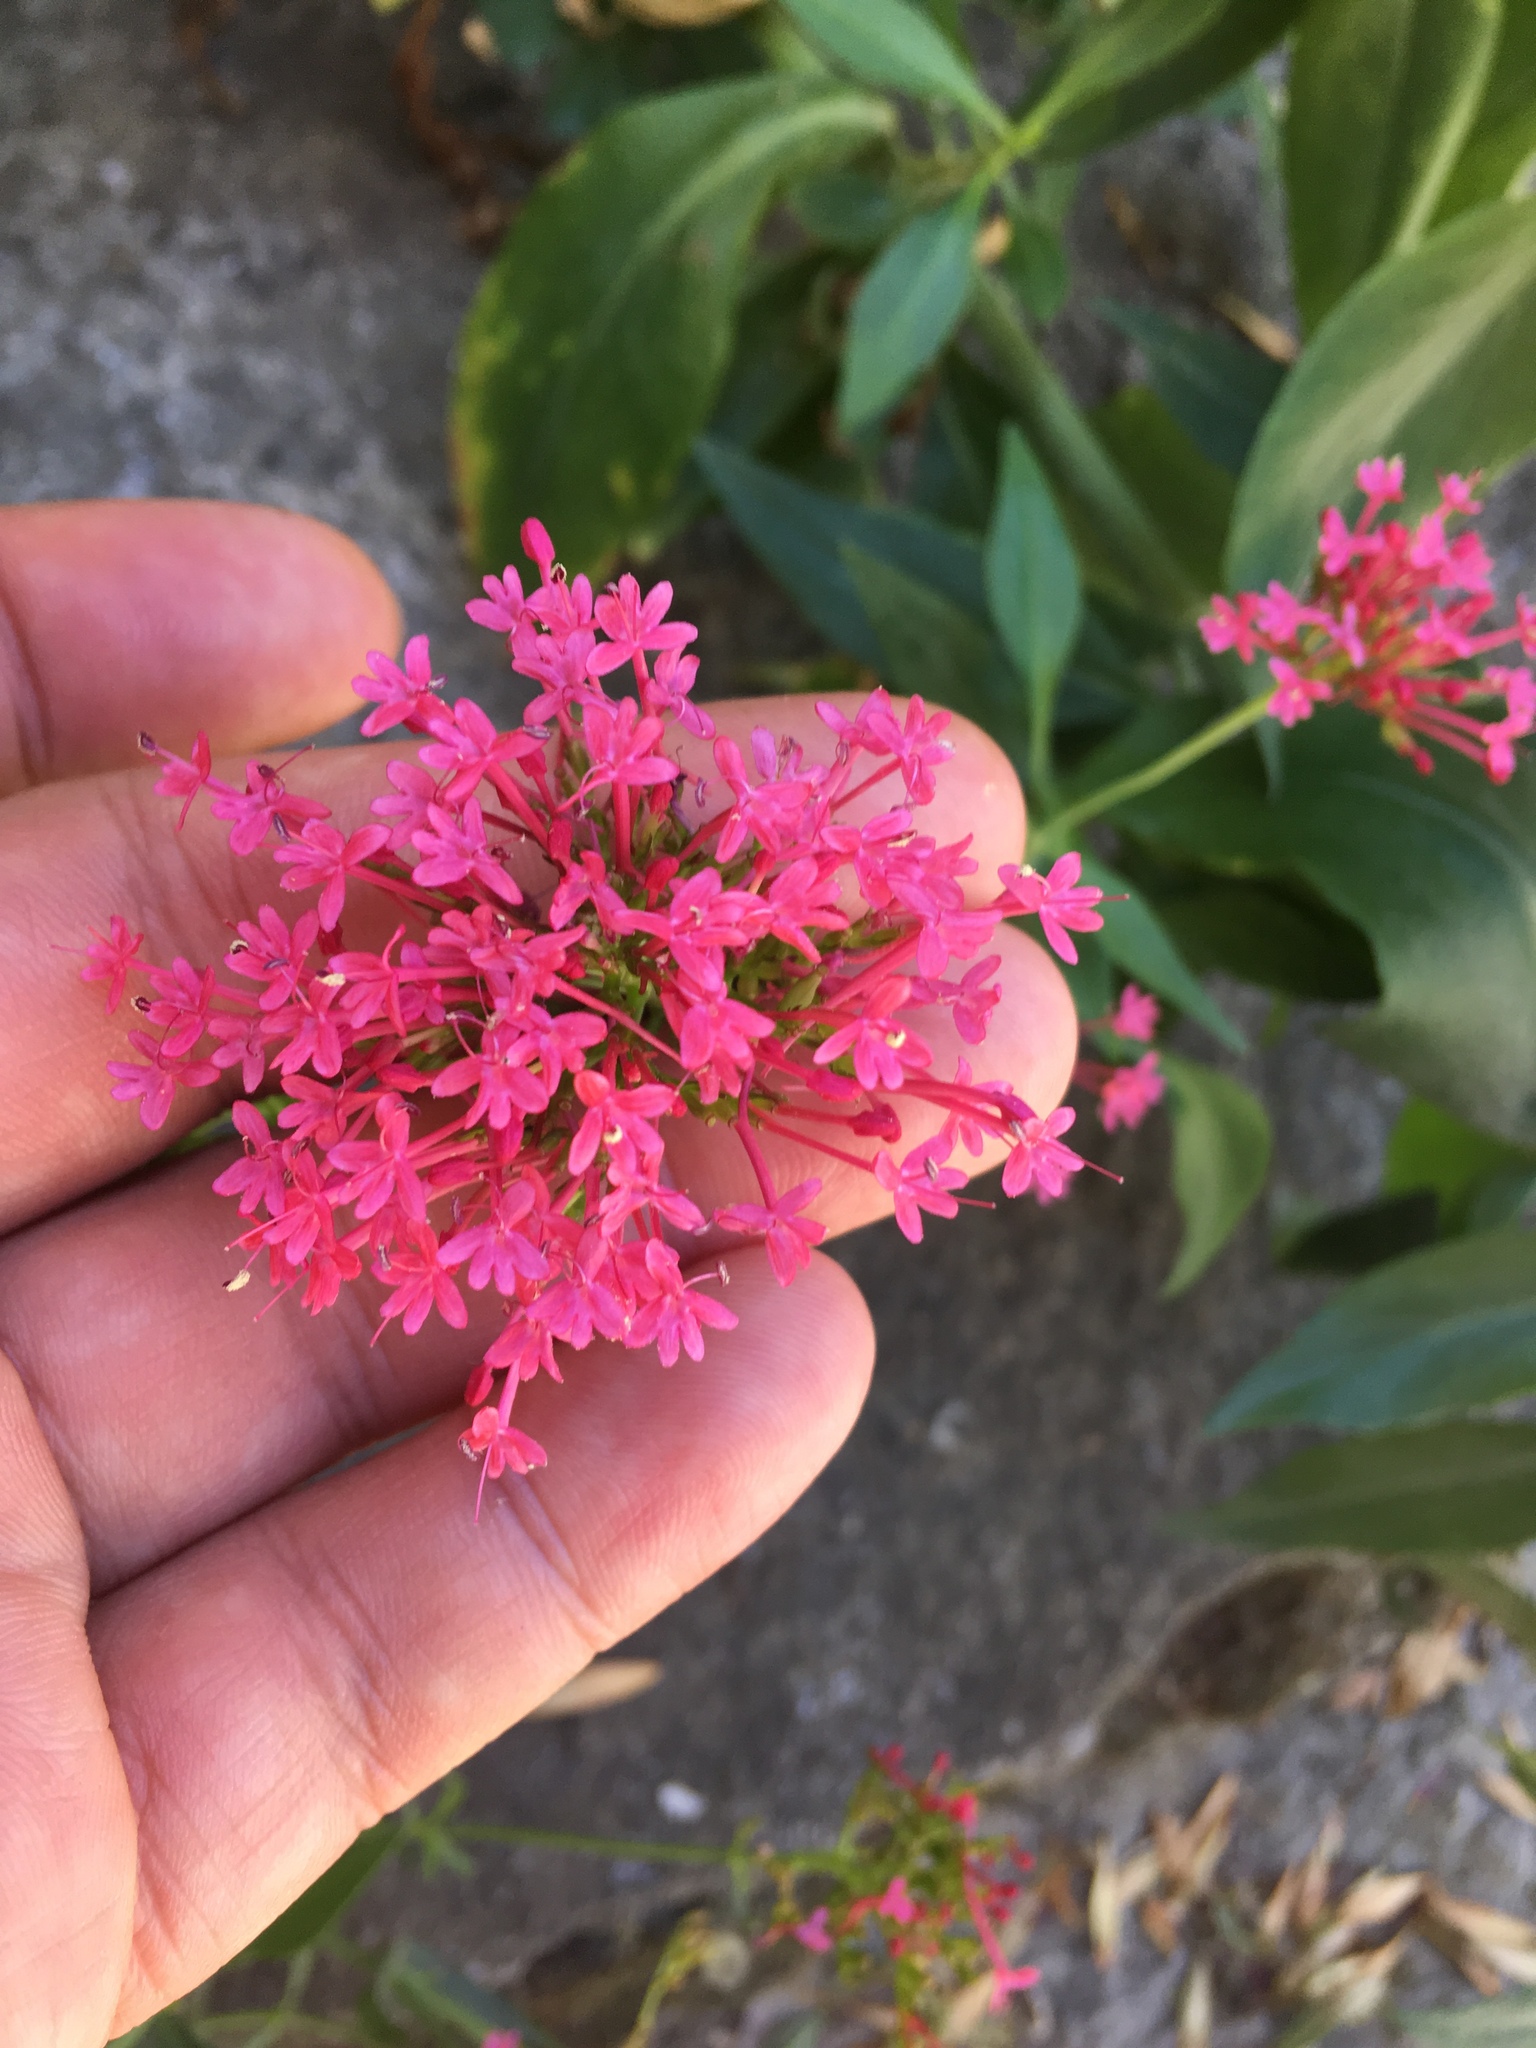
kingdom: Plantae
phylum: Tracheophyta
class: Magnoliopsida
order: Dipsacales
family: Caprifoliaceae
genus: Centranthus
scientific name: Centranthus ruber
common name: Red valerian
